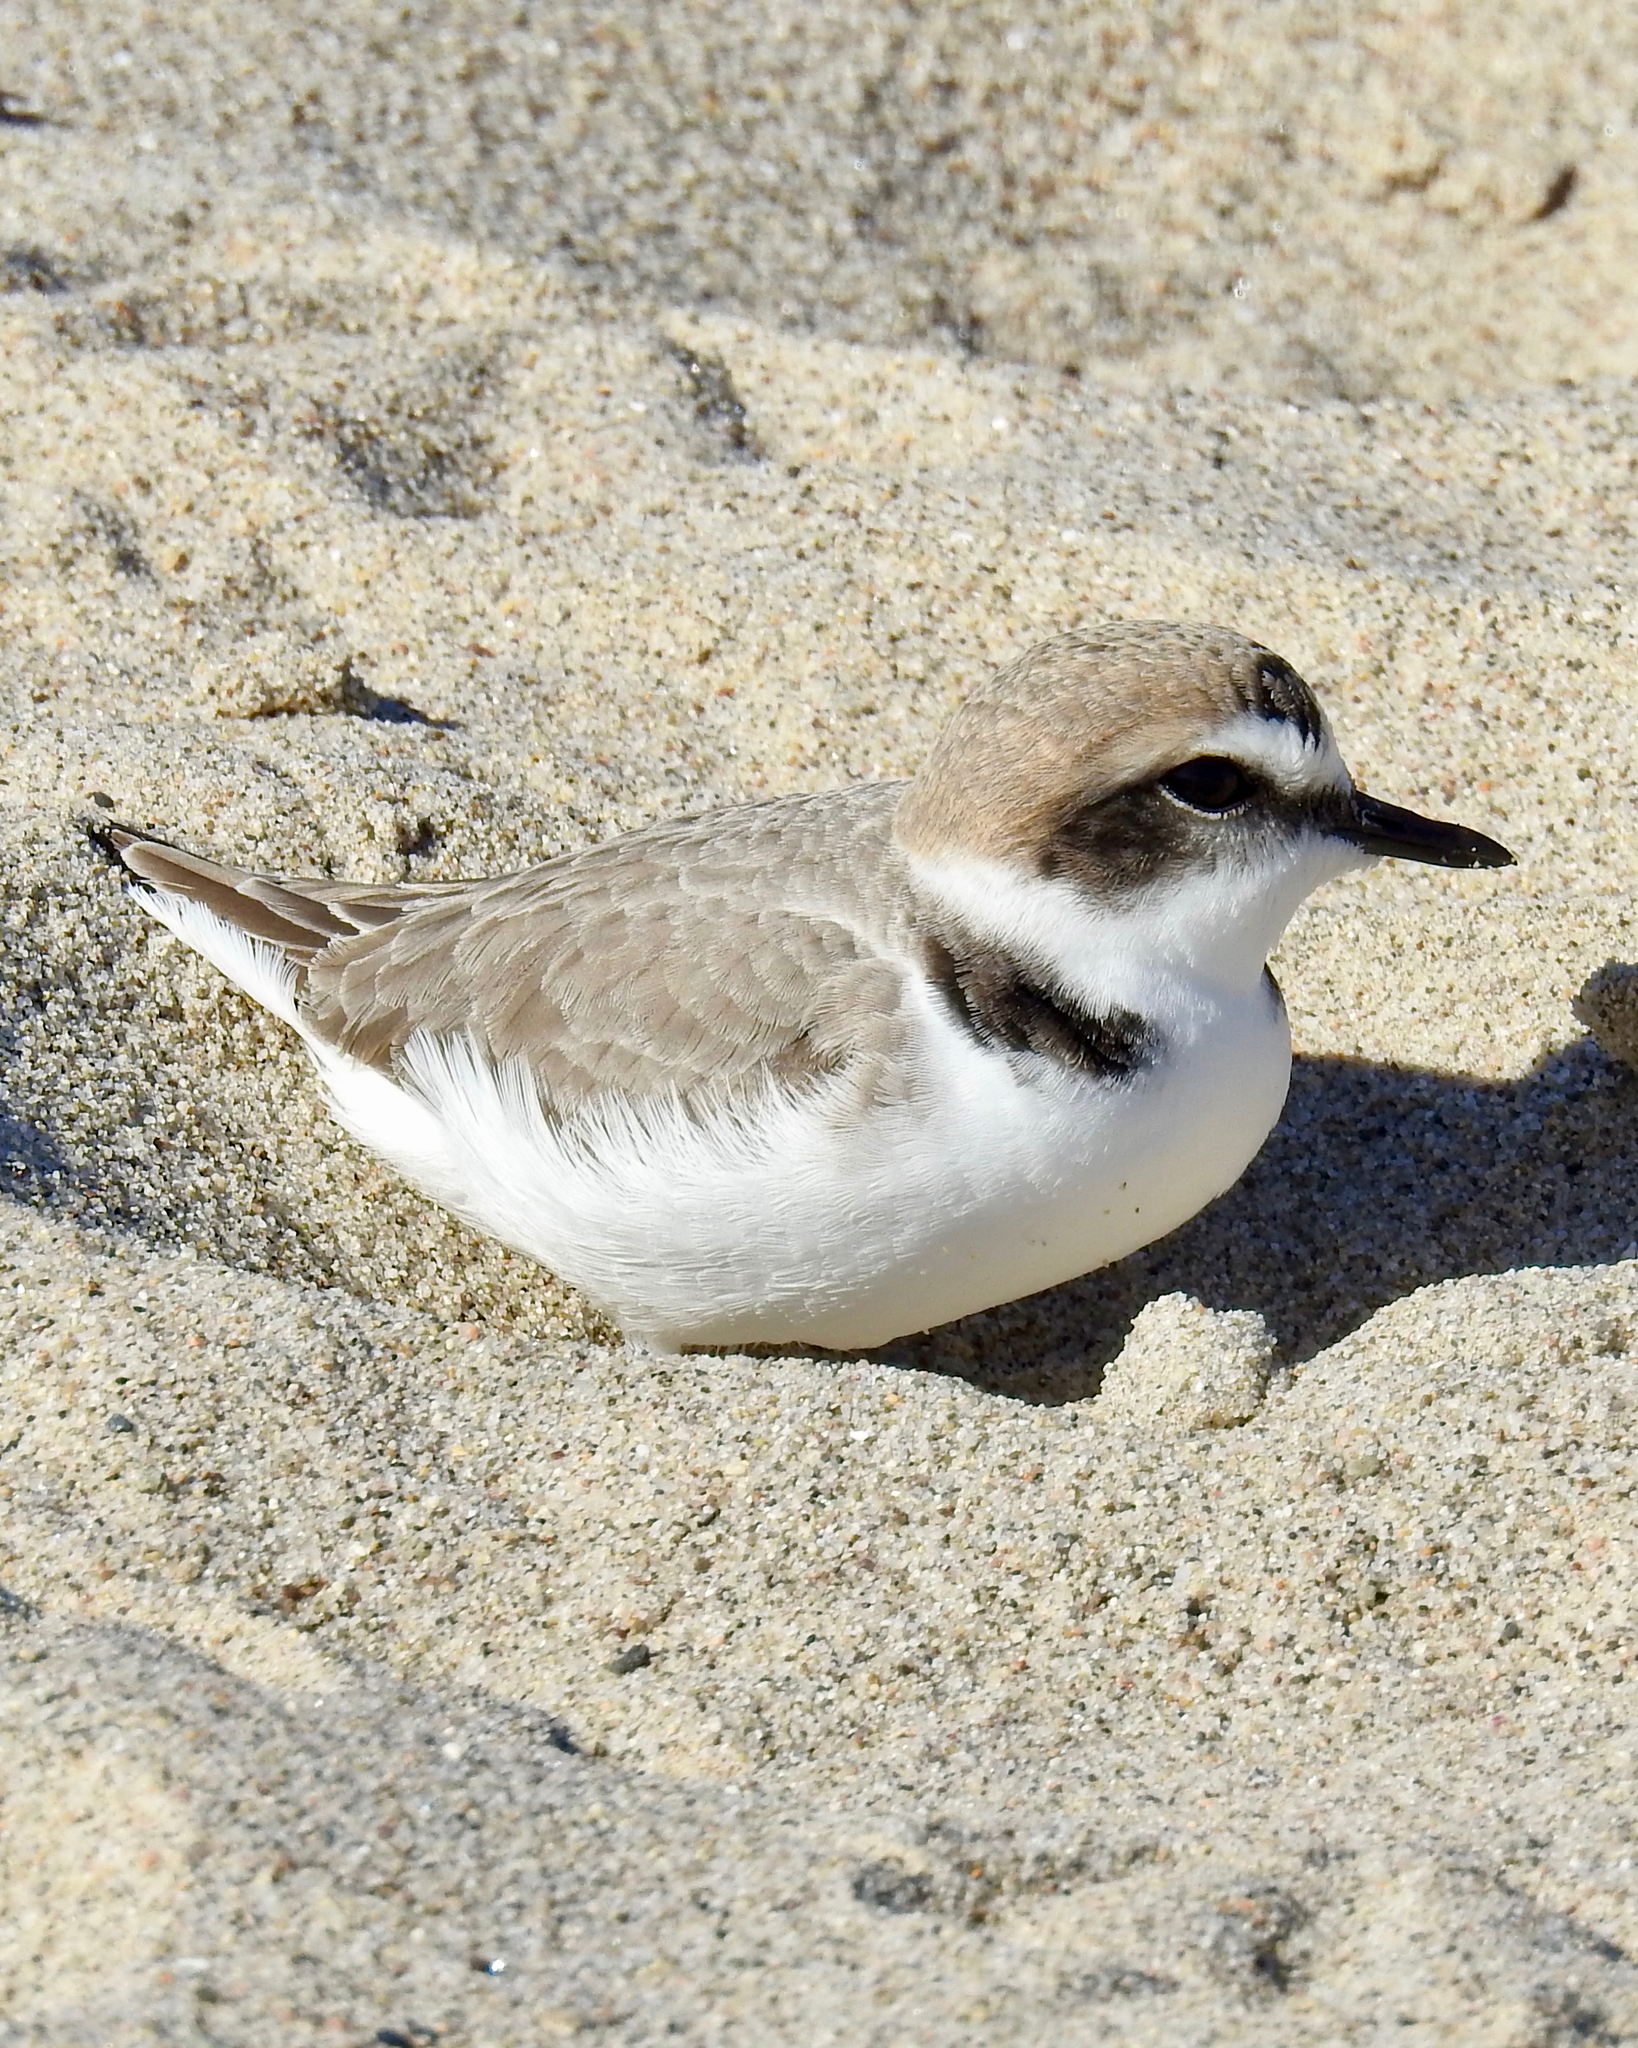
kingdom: Animalia
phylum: Chordata
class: Aves
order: Charadriiformes
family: Charadriidae
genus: Anarhynchus
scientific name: Anarhynchus
